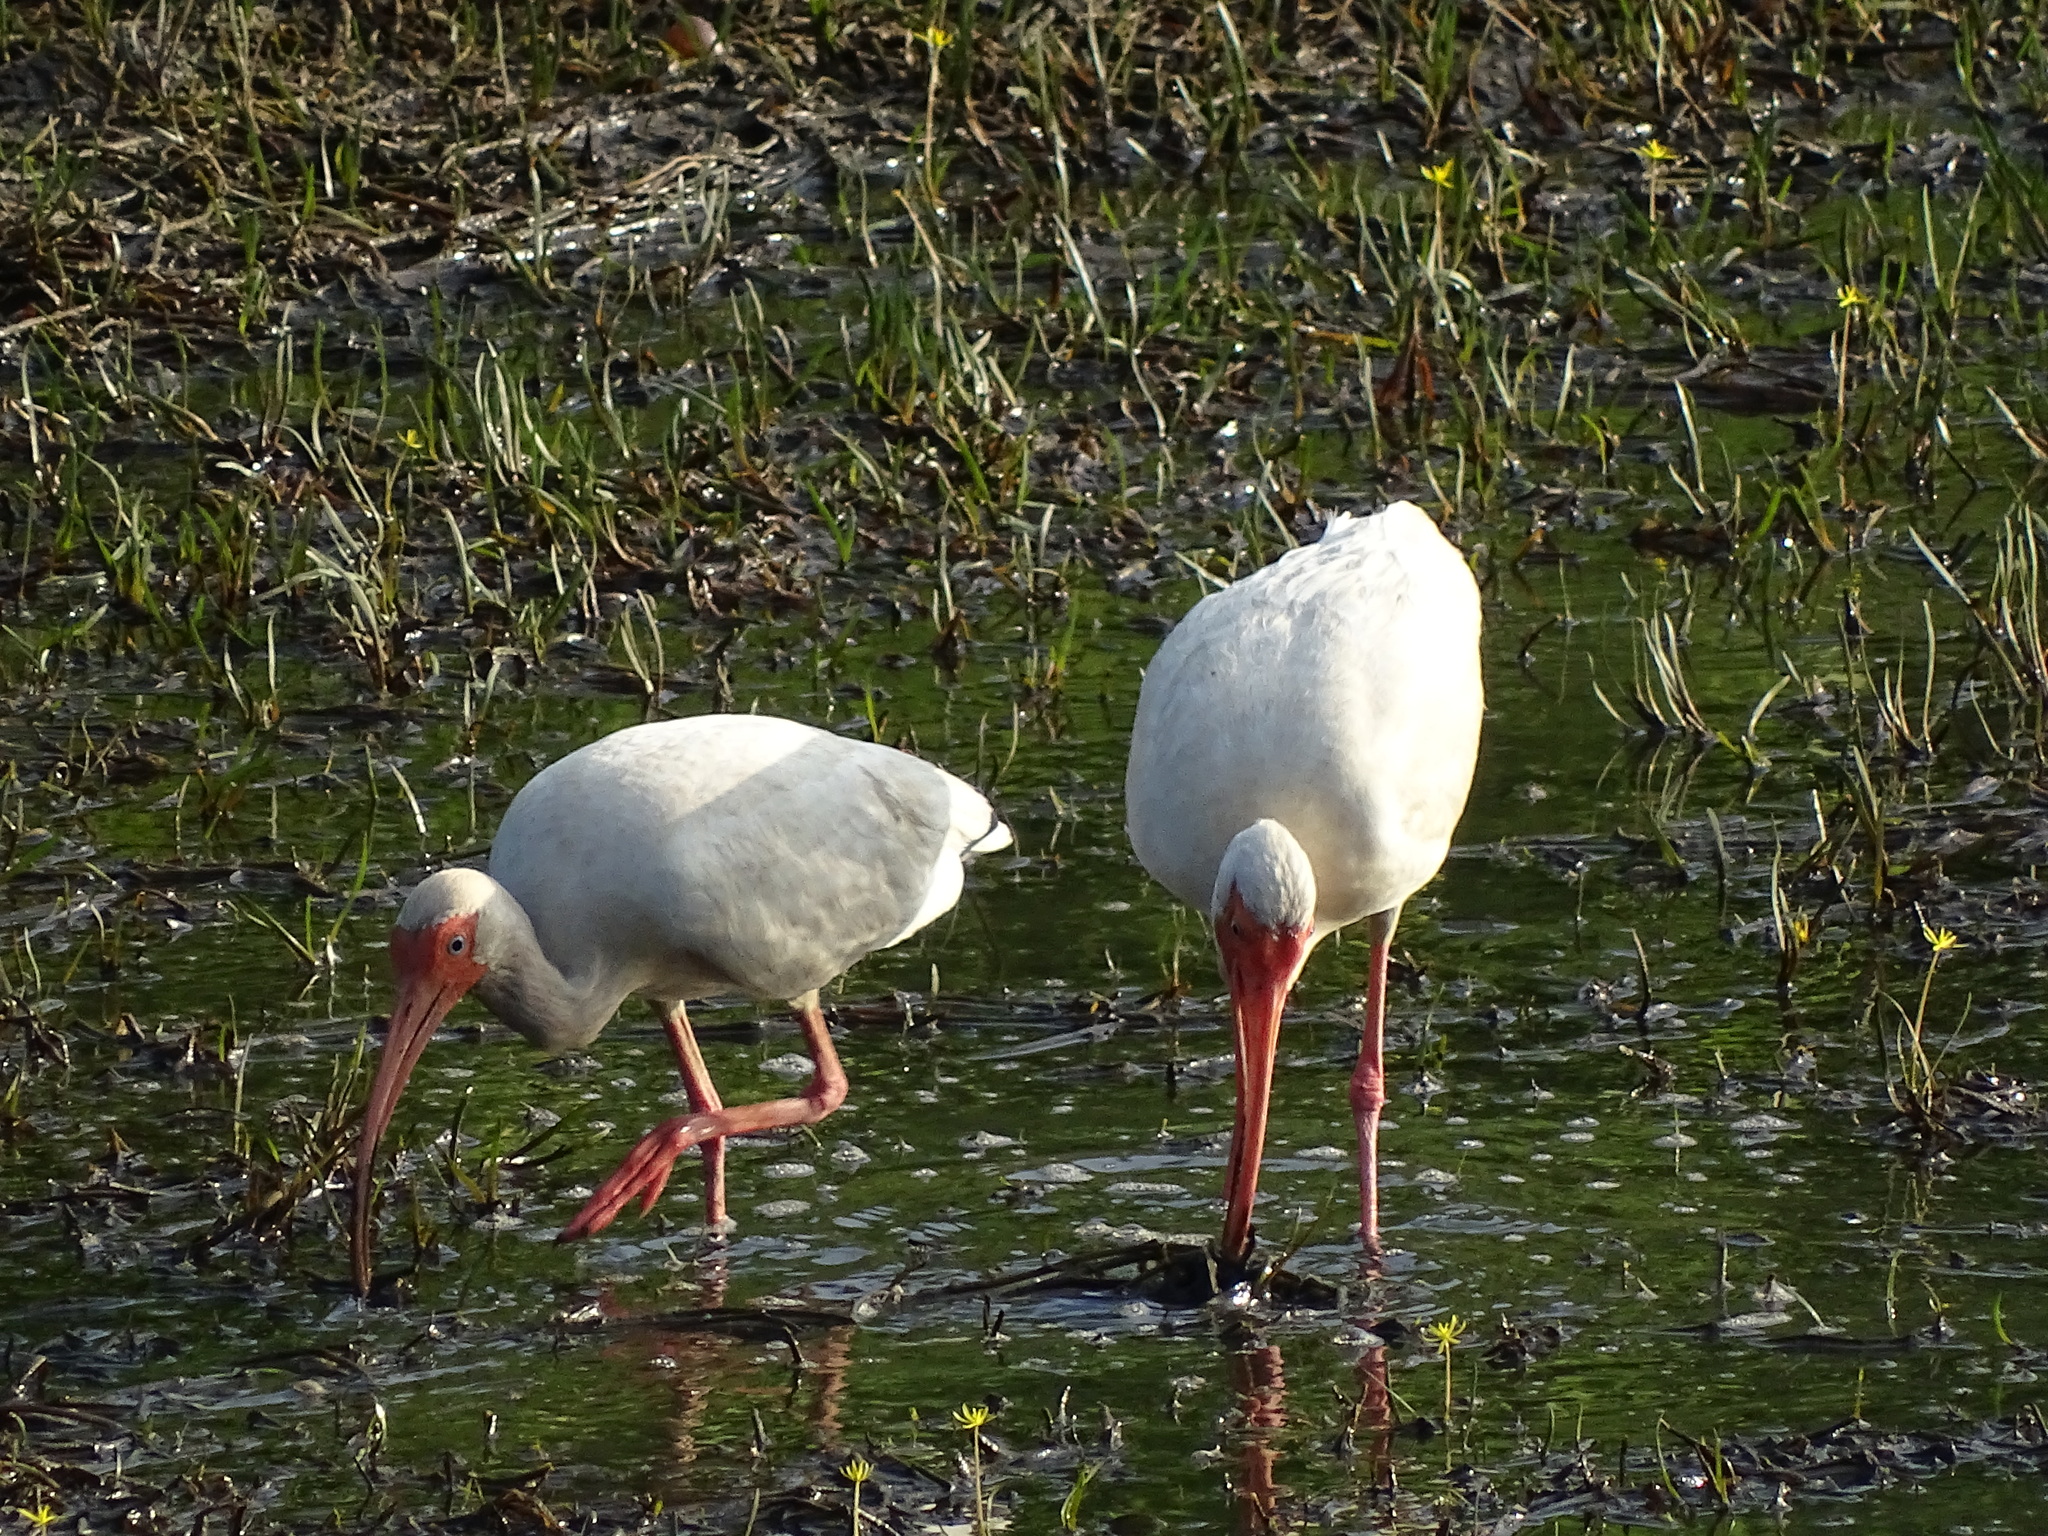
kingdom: Animalia
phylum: Chordata
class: Aves
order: Pelecaniformes
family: Threskiornithidae
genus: Eudocimus
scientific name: Eudocimus albus
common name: White ibis
